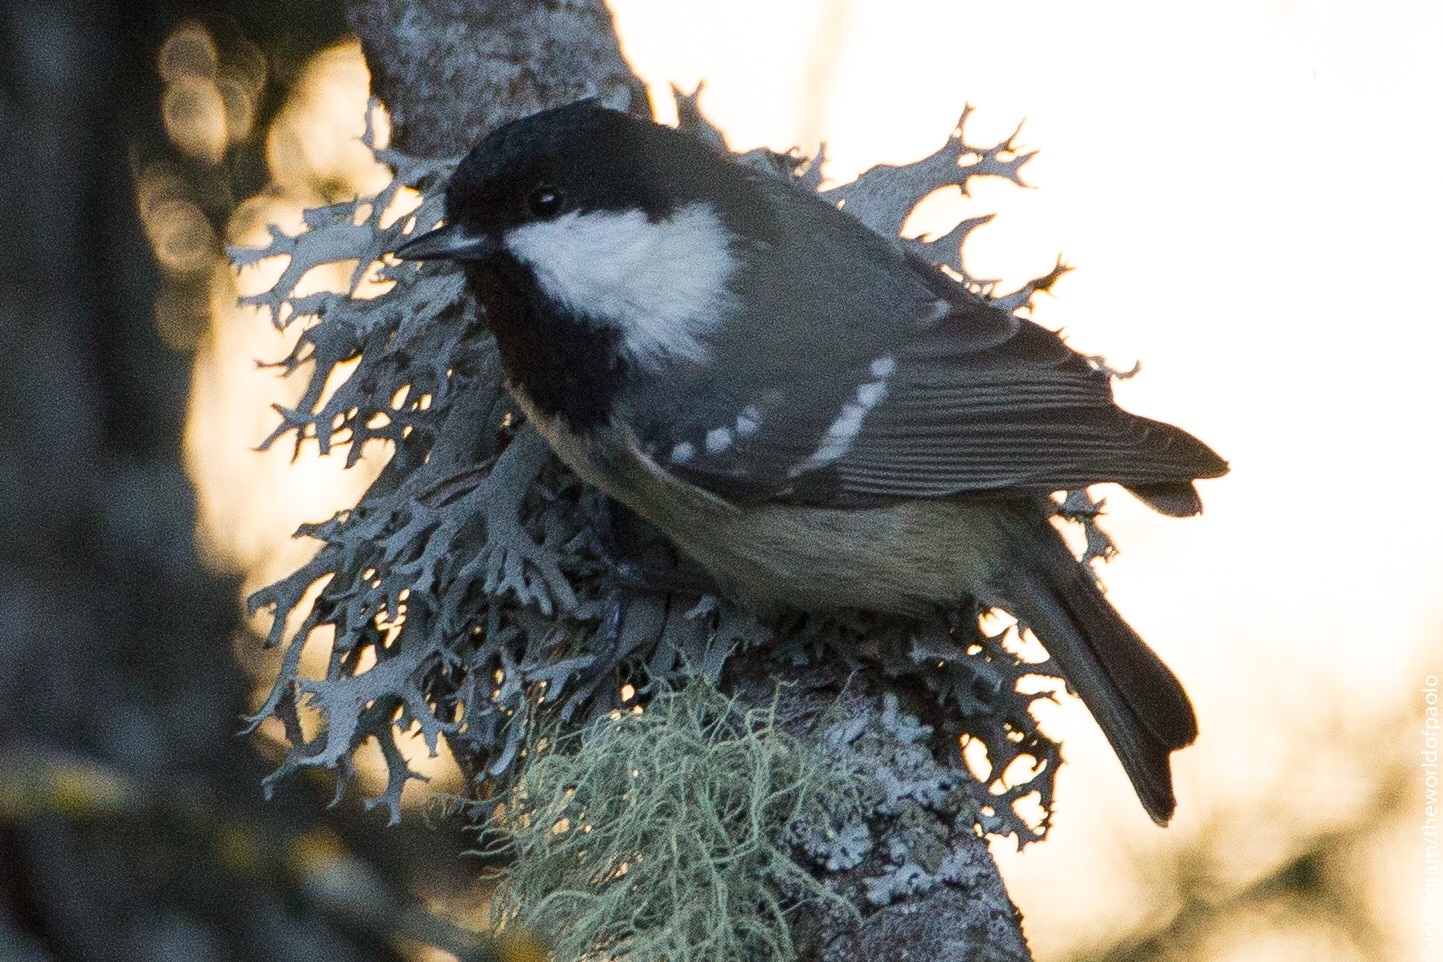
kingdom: Animalia
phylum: Chordata
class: Aves
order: Passeriformes
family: Paridae
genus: Periparus
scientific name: Periparus ater
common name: Coal tit
